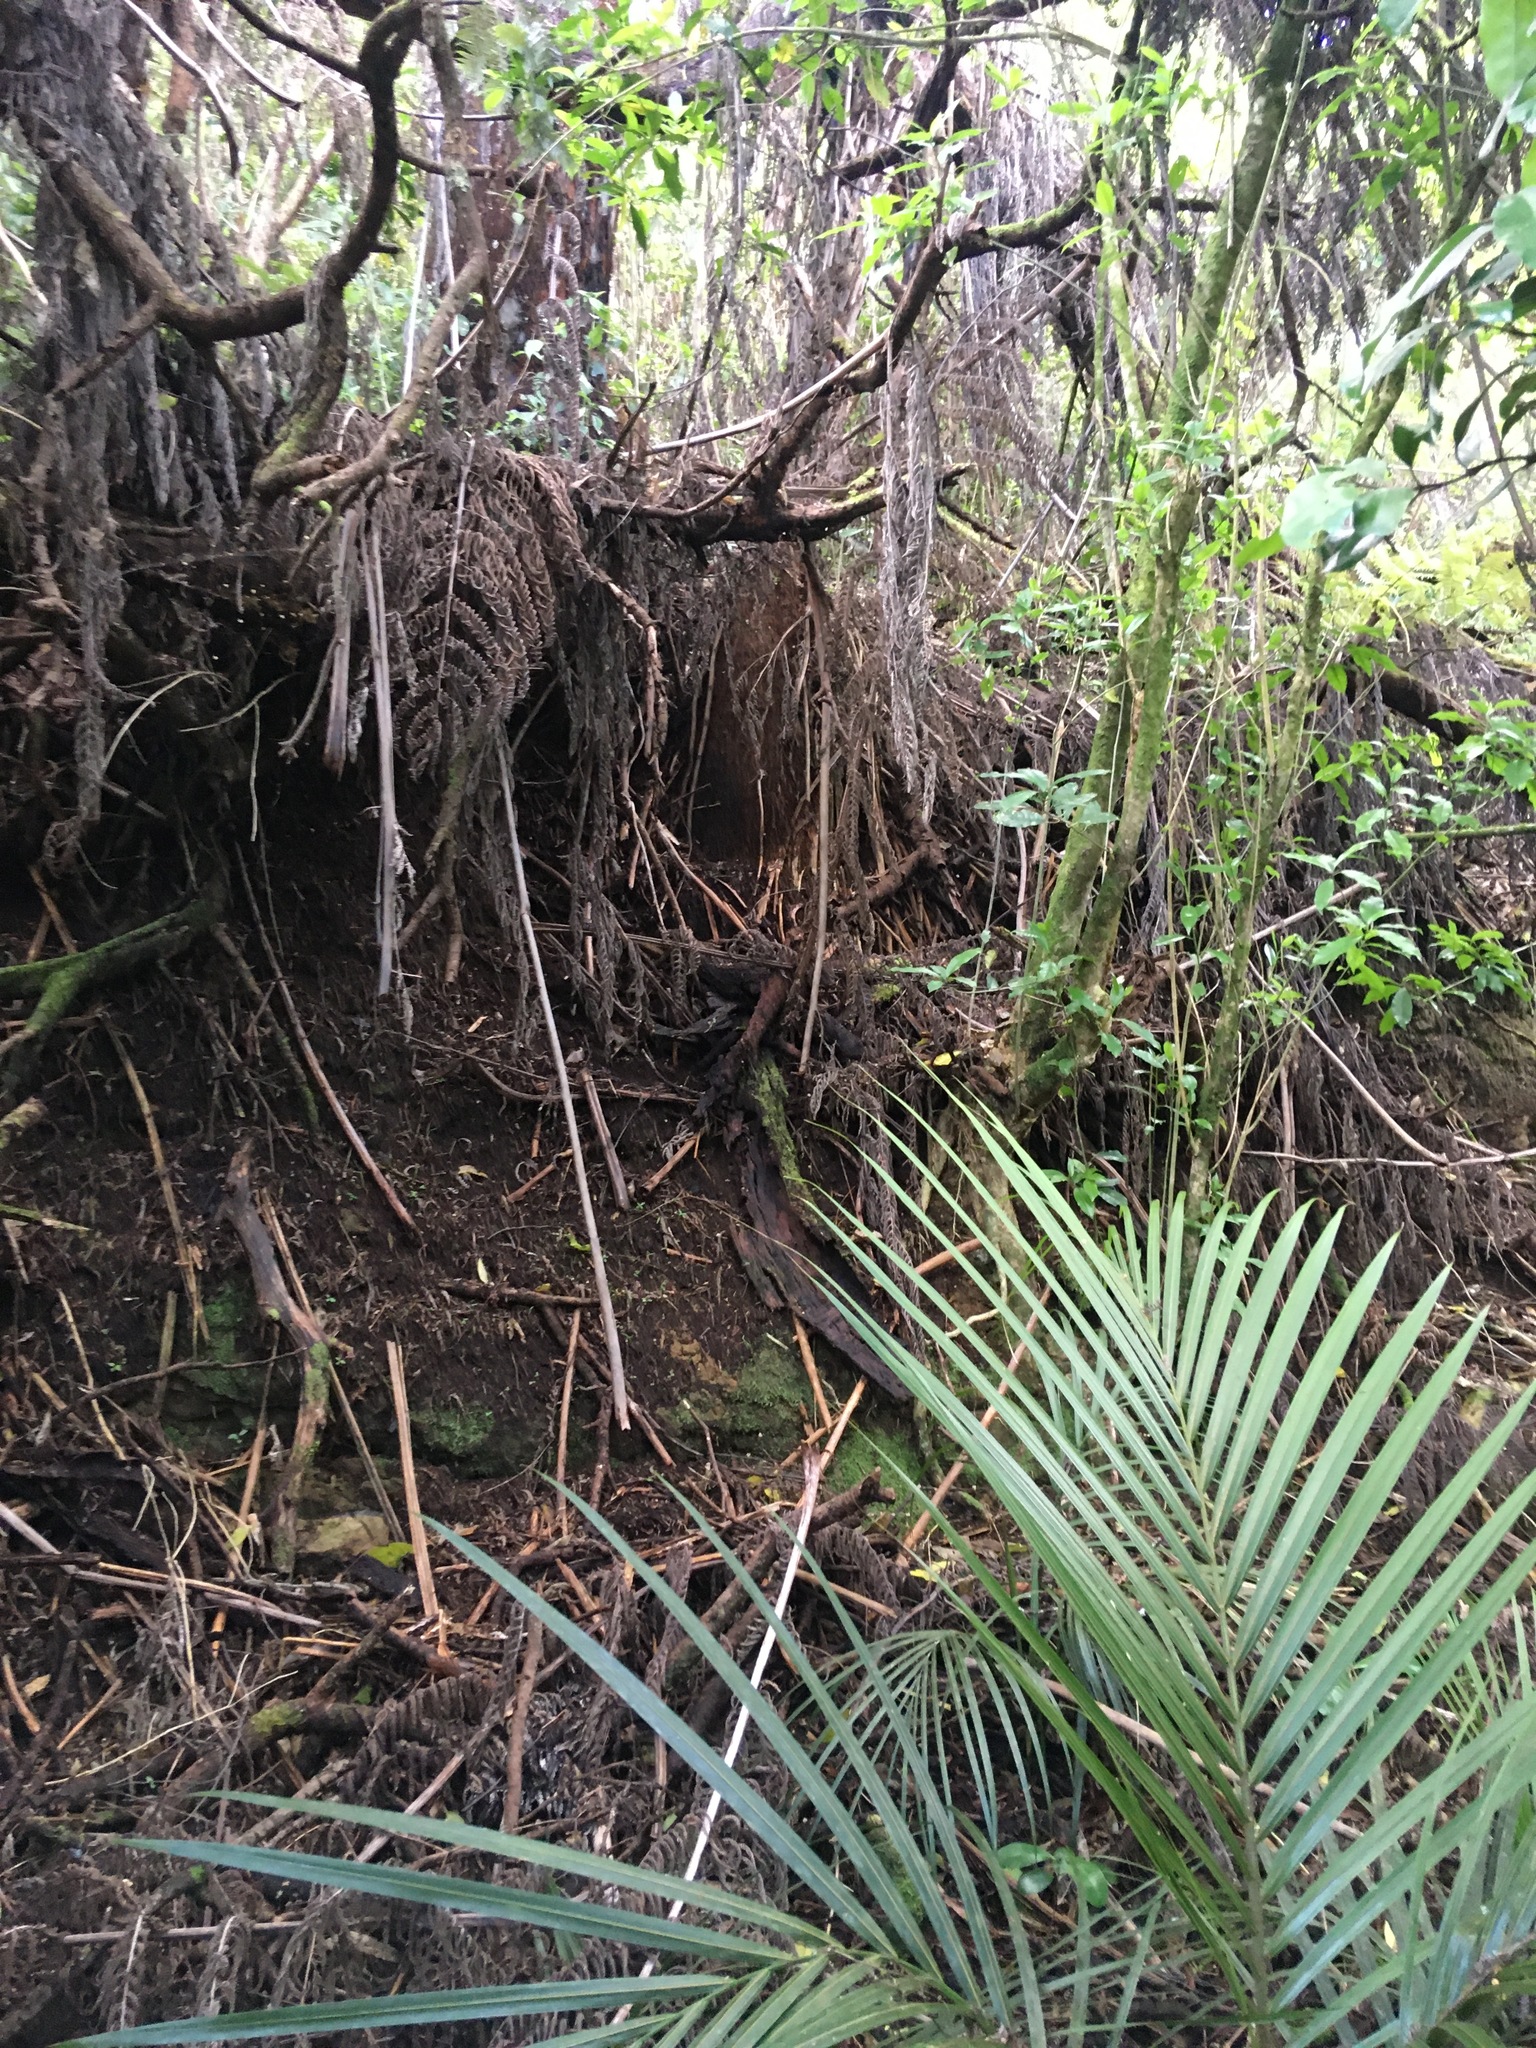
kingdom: Plantae
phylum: Tracheophyta
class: Magnoliopsida
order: Malpighiales
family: Violaceae
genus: Melicytus
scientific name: Melicytus ramiflorus
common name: Mahoe
